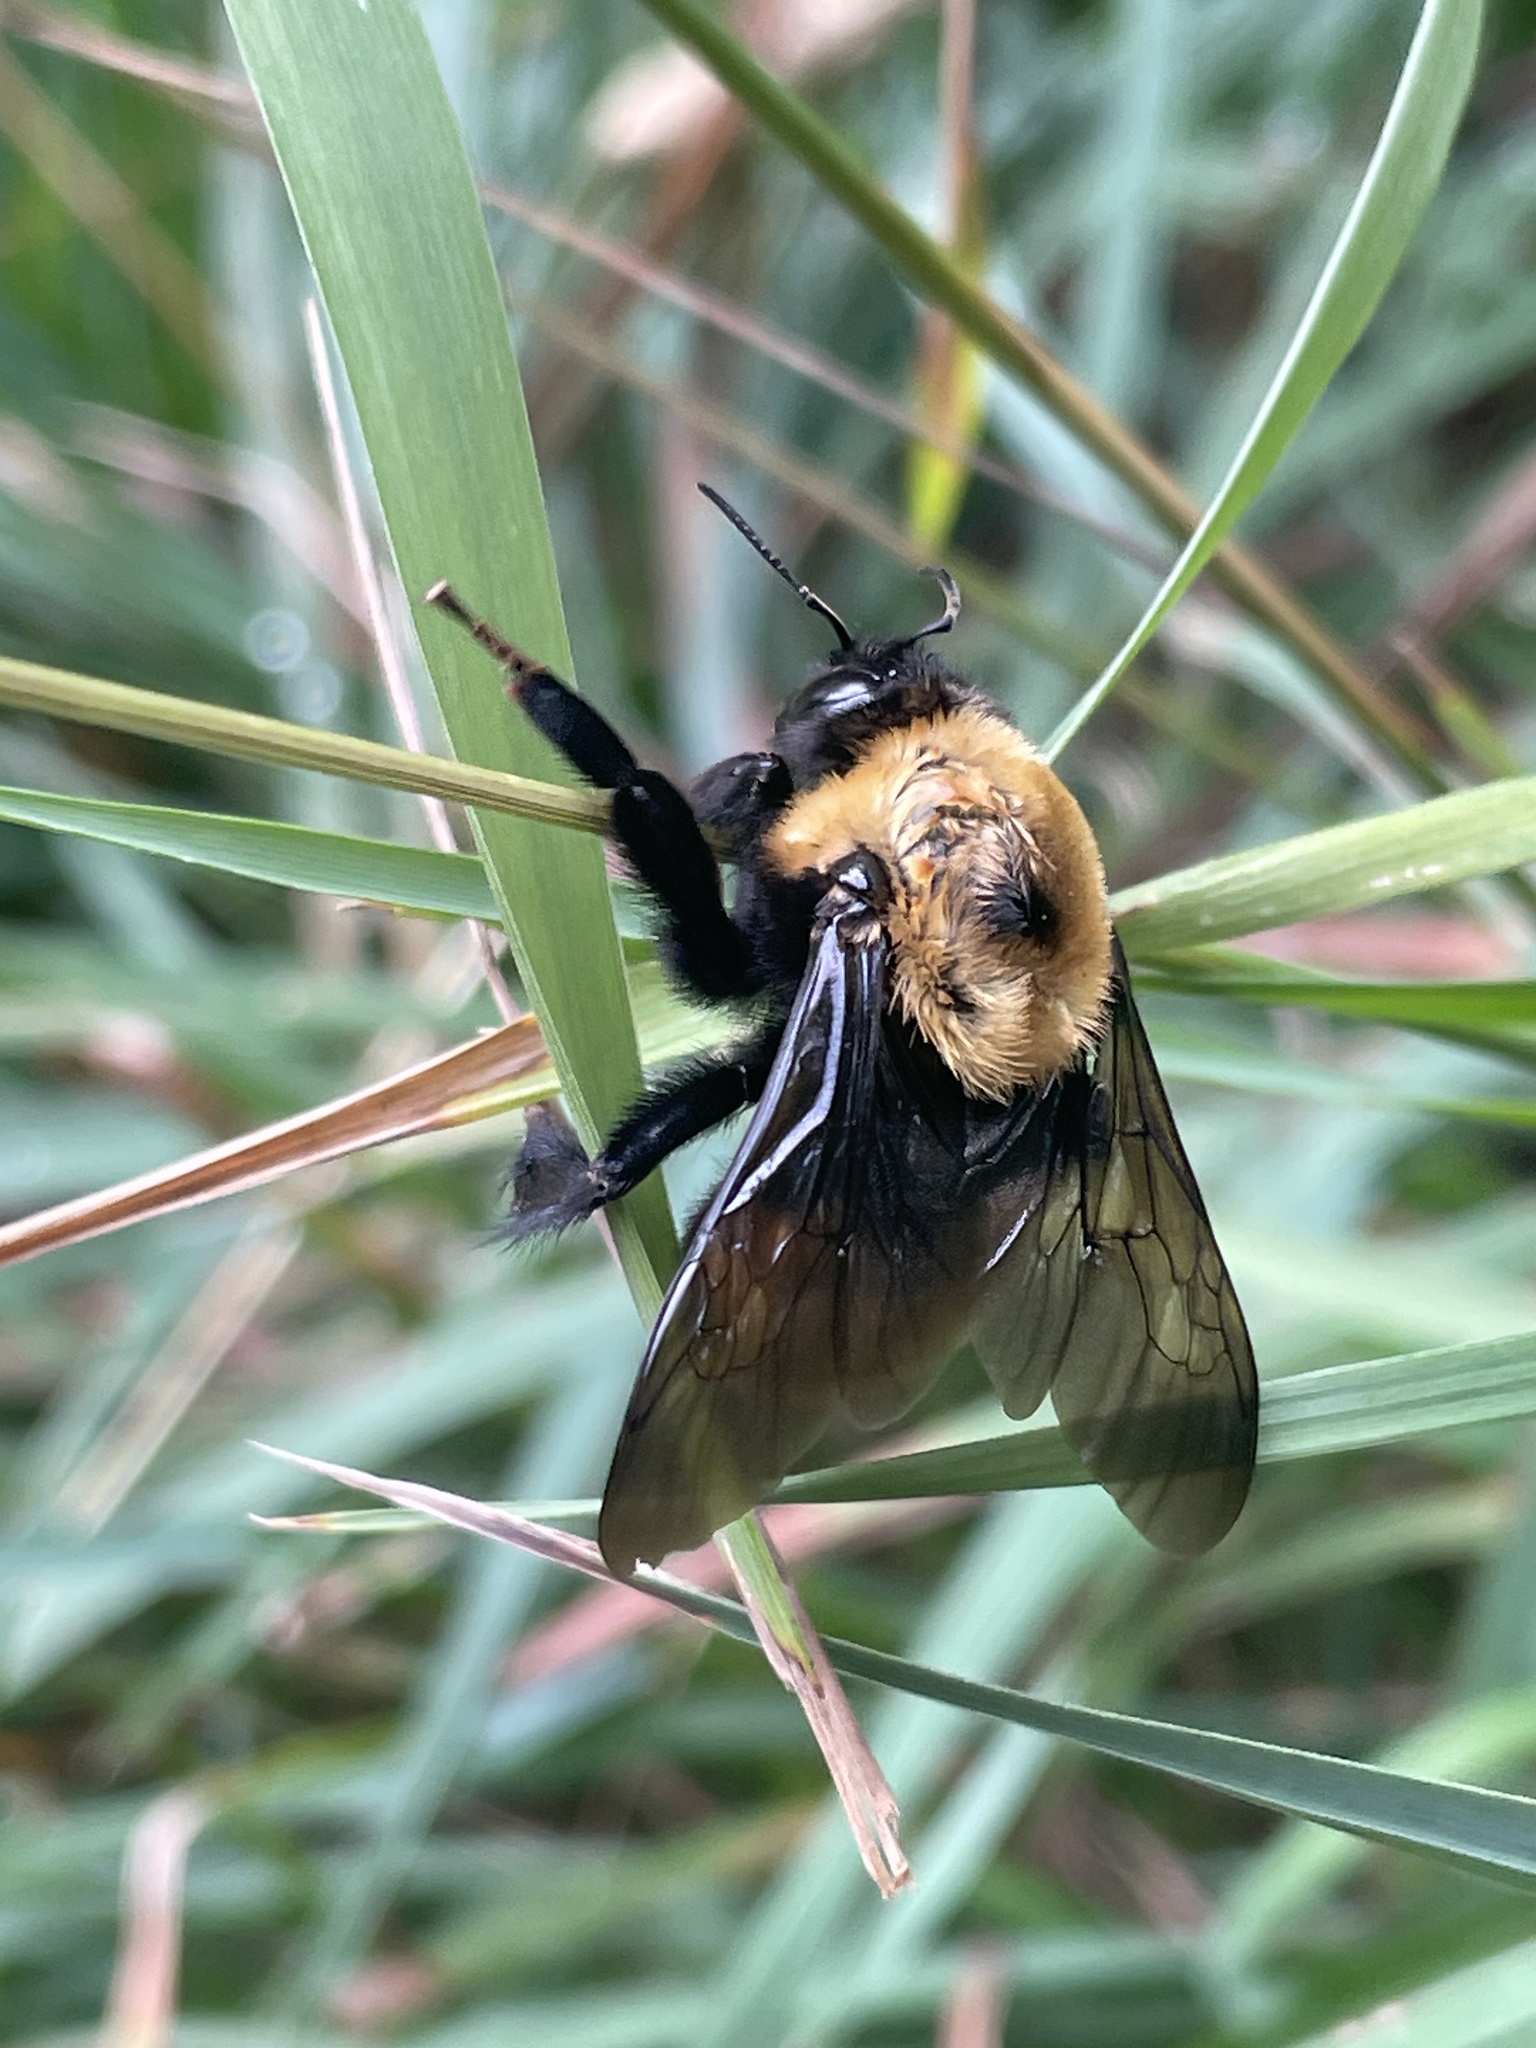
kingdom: Animalia
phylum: Arthropoda
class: Insecta
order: Hymenoptera
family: Apidae
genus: Bombus
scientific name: Bombus nevadensis
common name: Nevada bumble bee
